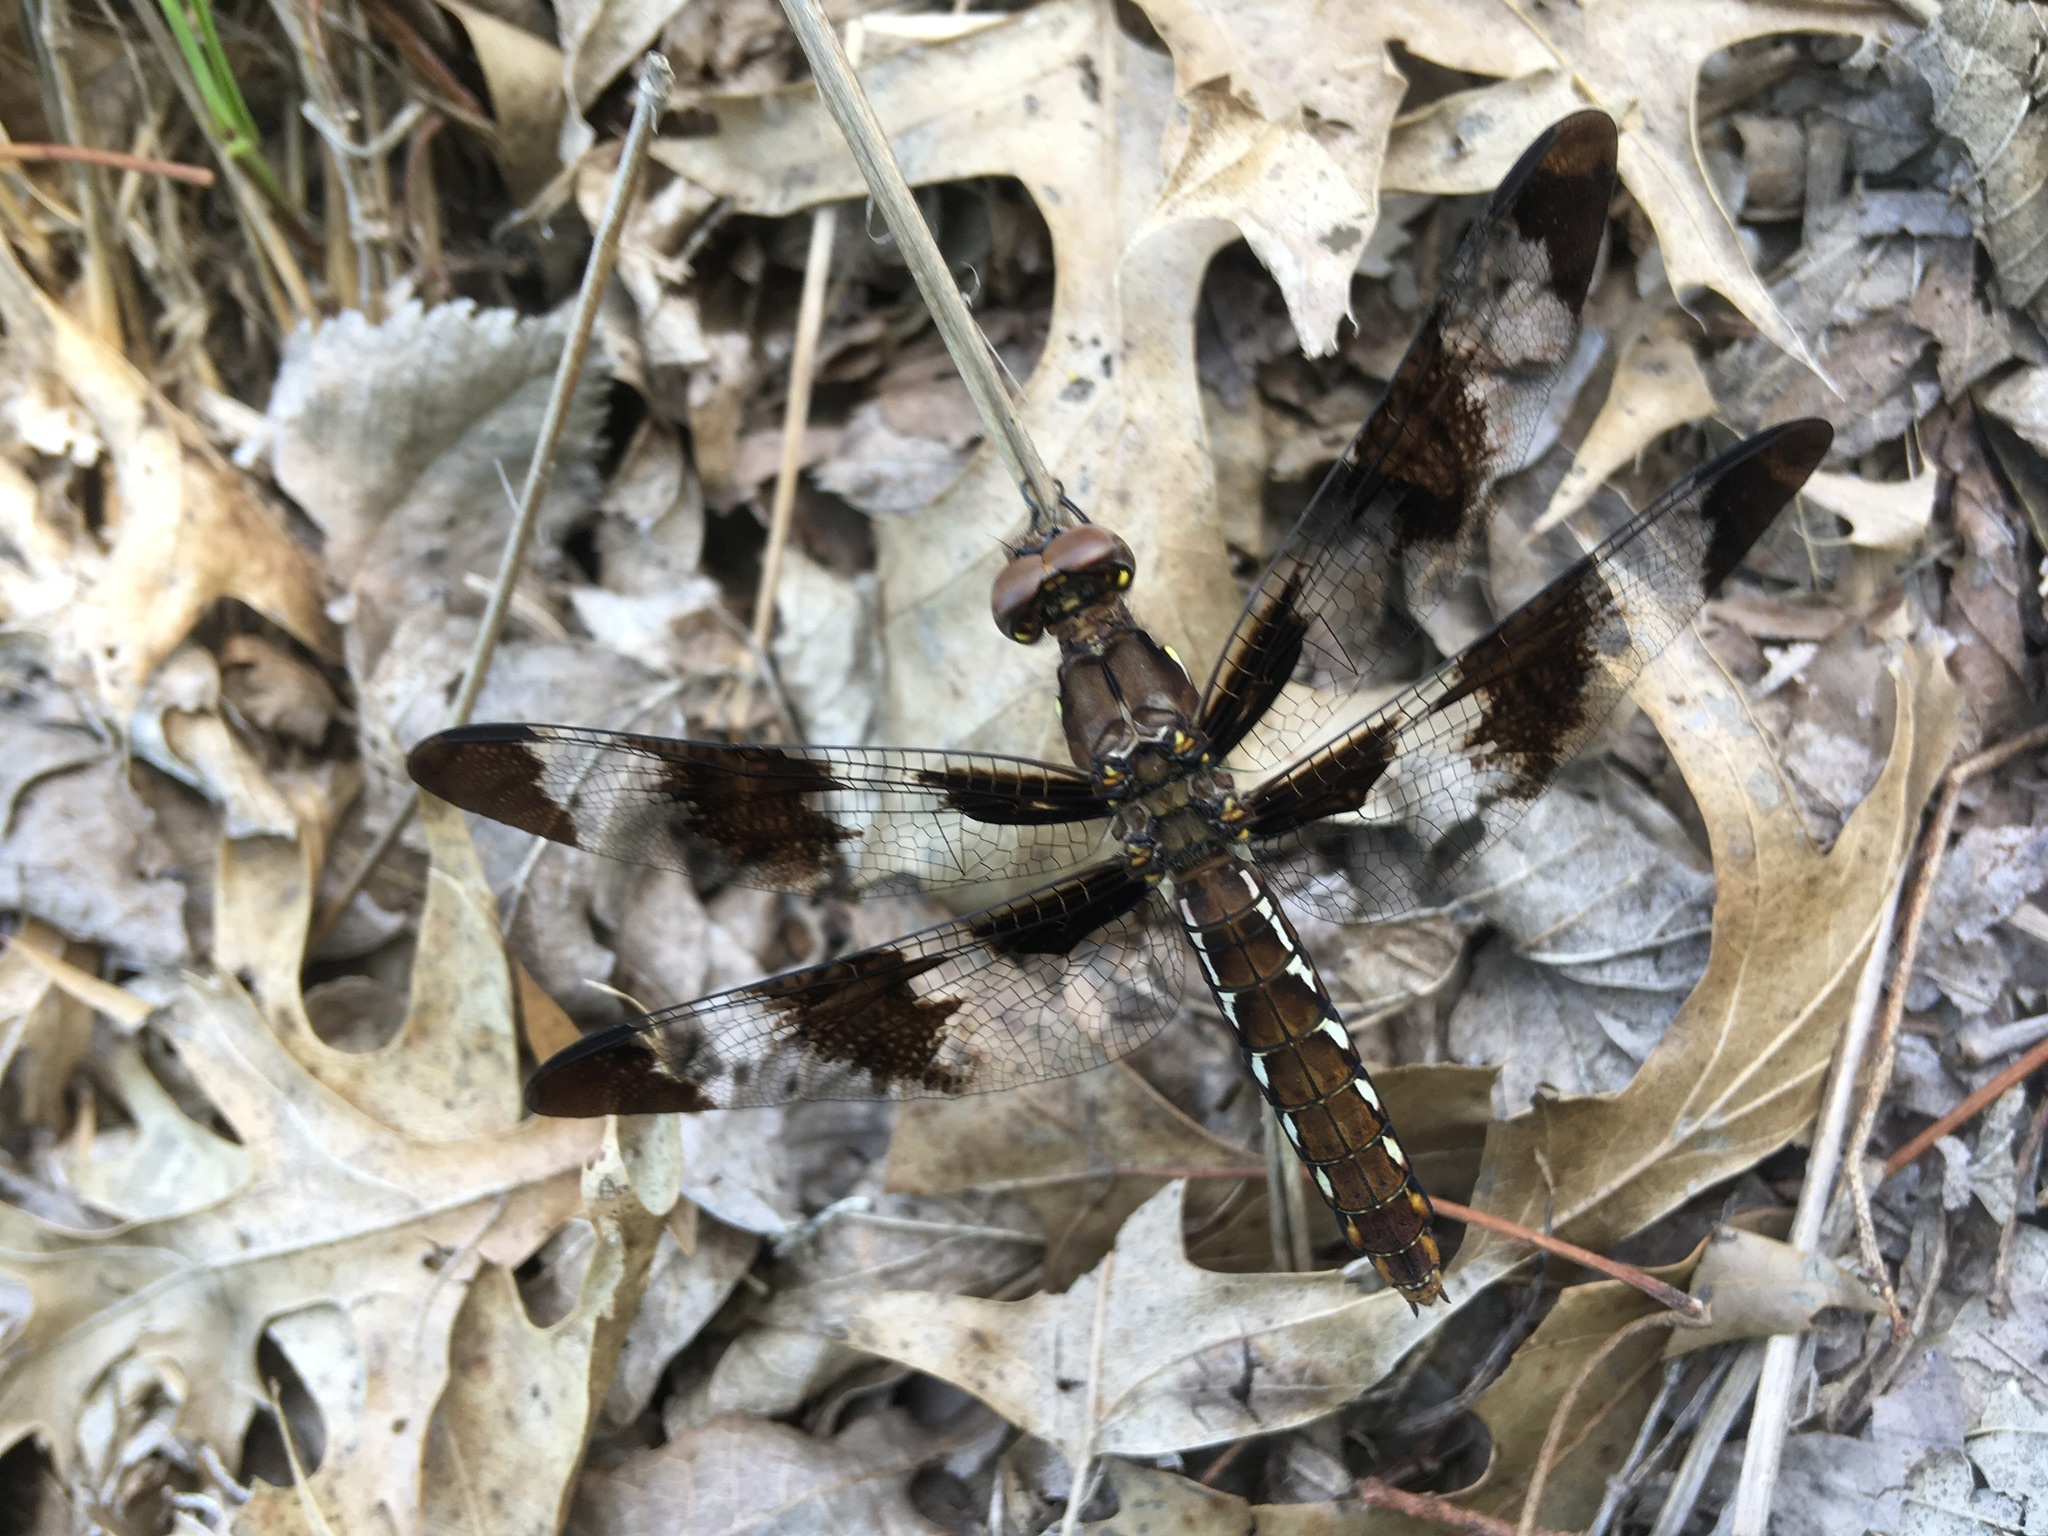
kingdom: Animalia
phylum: Arthropoda
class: Insecta
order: Odonata
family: Libellulidae
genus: Plathemis
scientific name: Plathemis lydia
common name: Common whitetail
